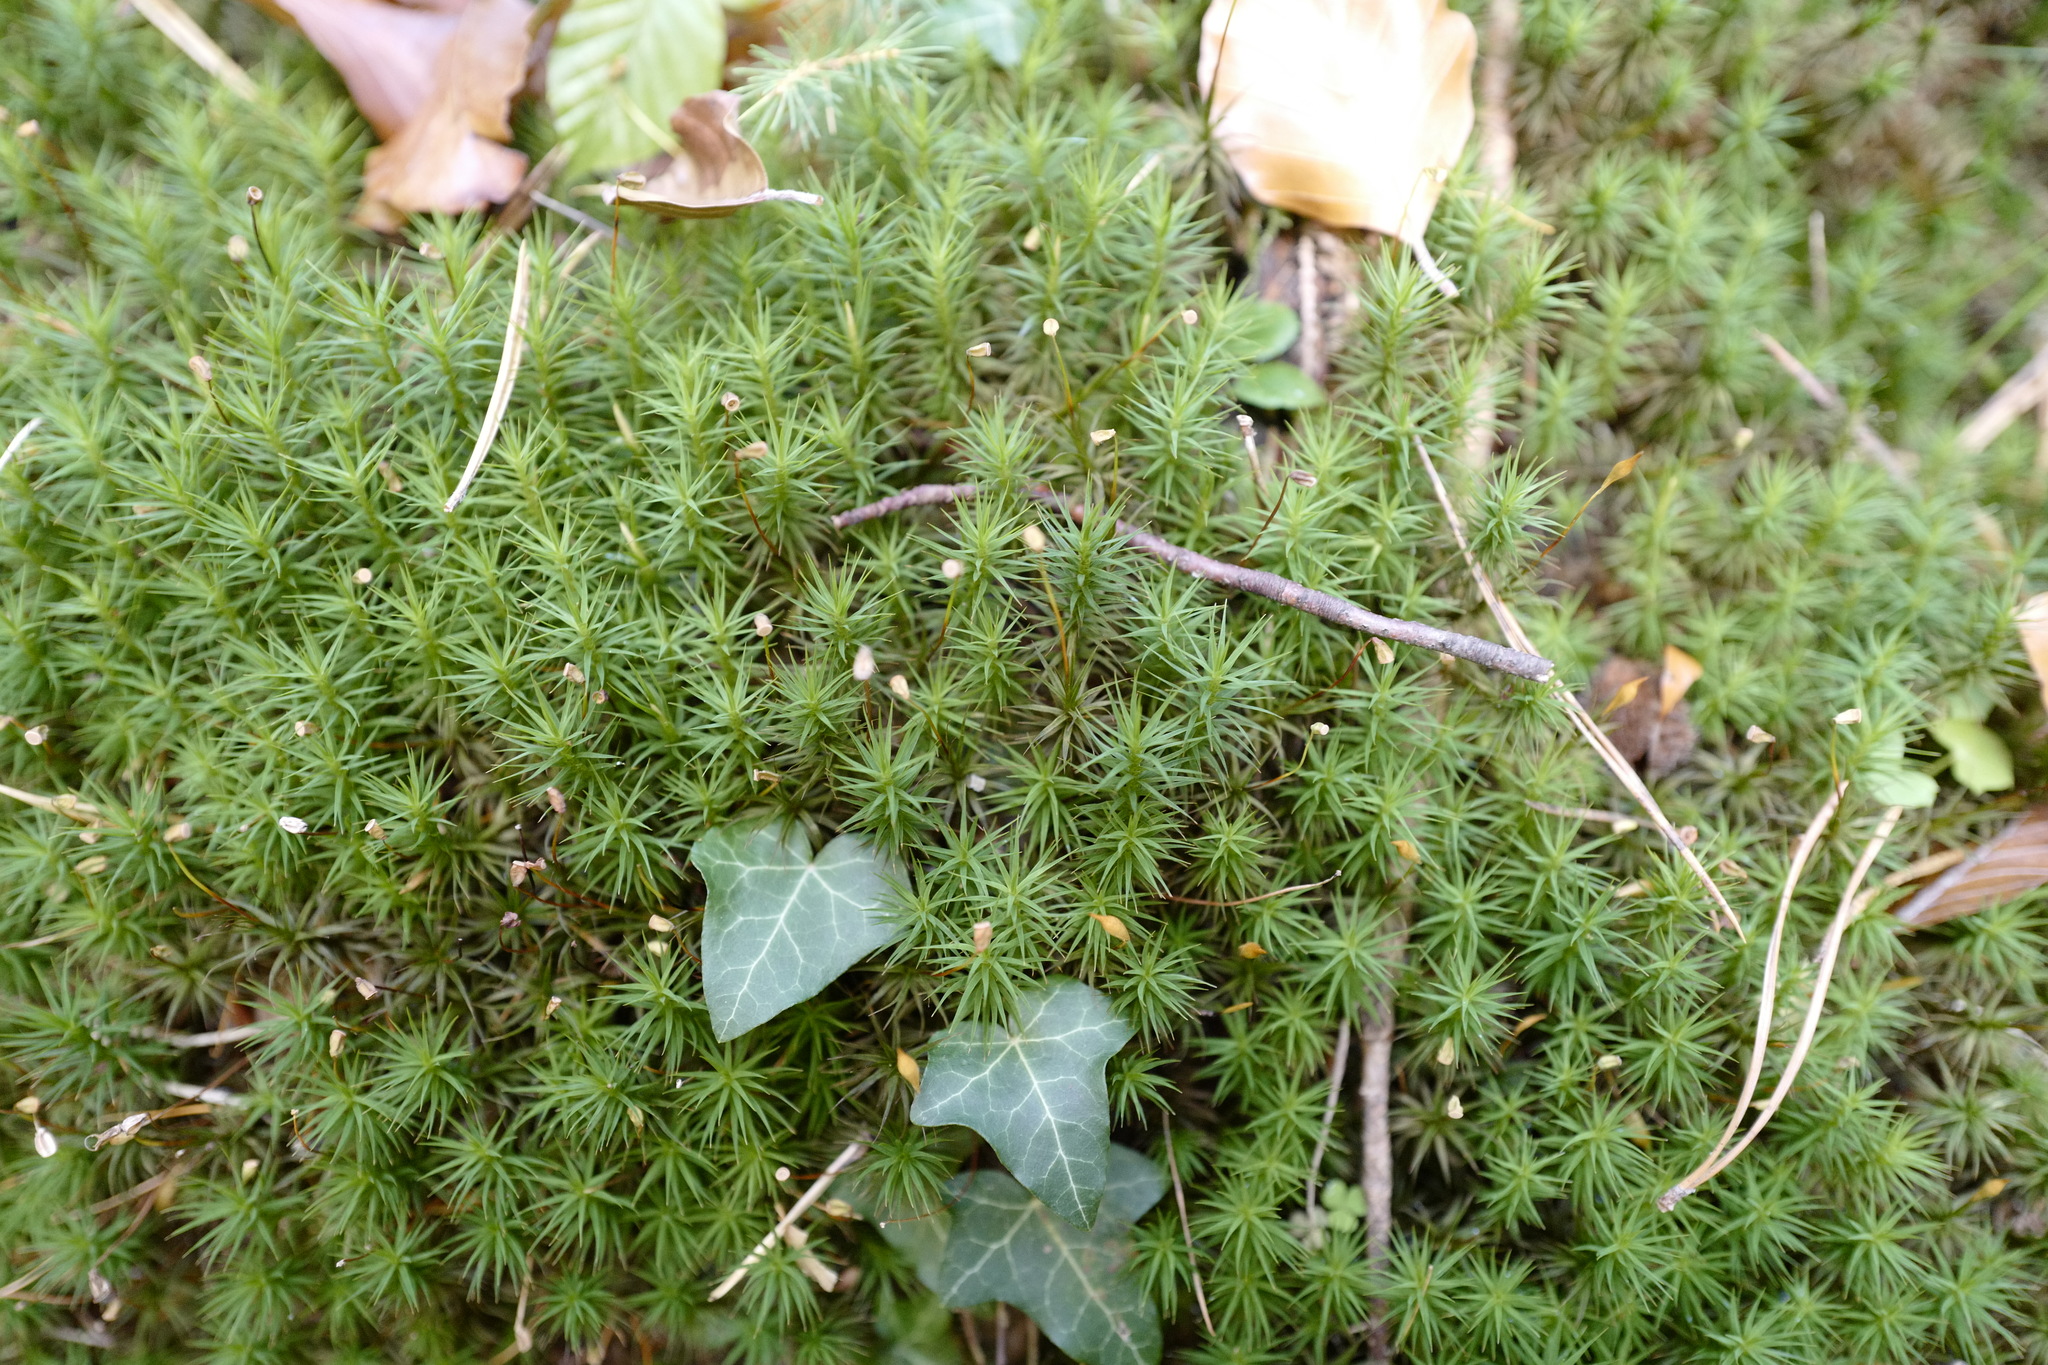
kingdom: Plantae
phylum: Bryophyta
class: Polytrichopsida
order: Polytrichales
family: Polytrichaceae
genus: Polytrichum
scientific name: Polytrichum formosum
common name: Bank haircap moss
